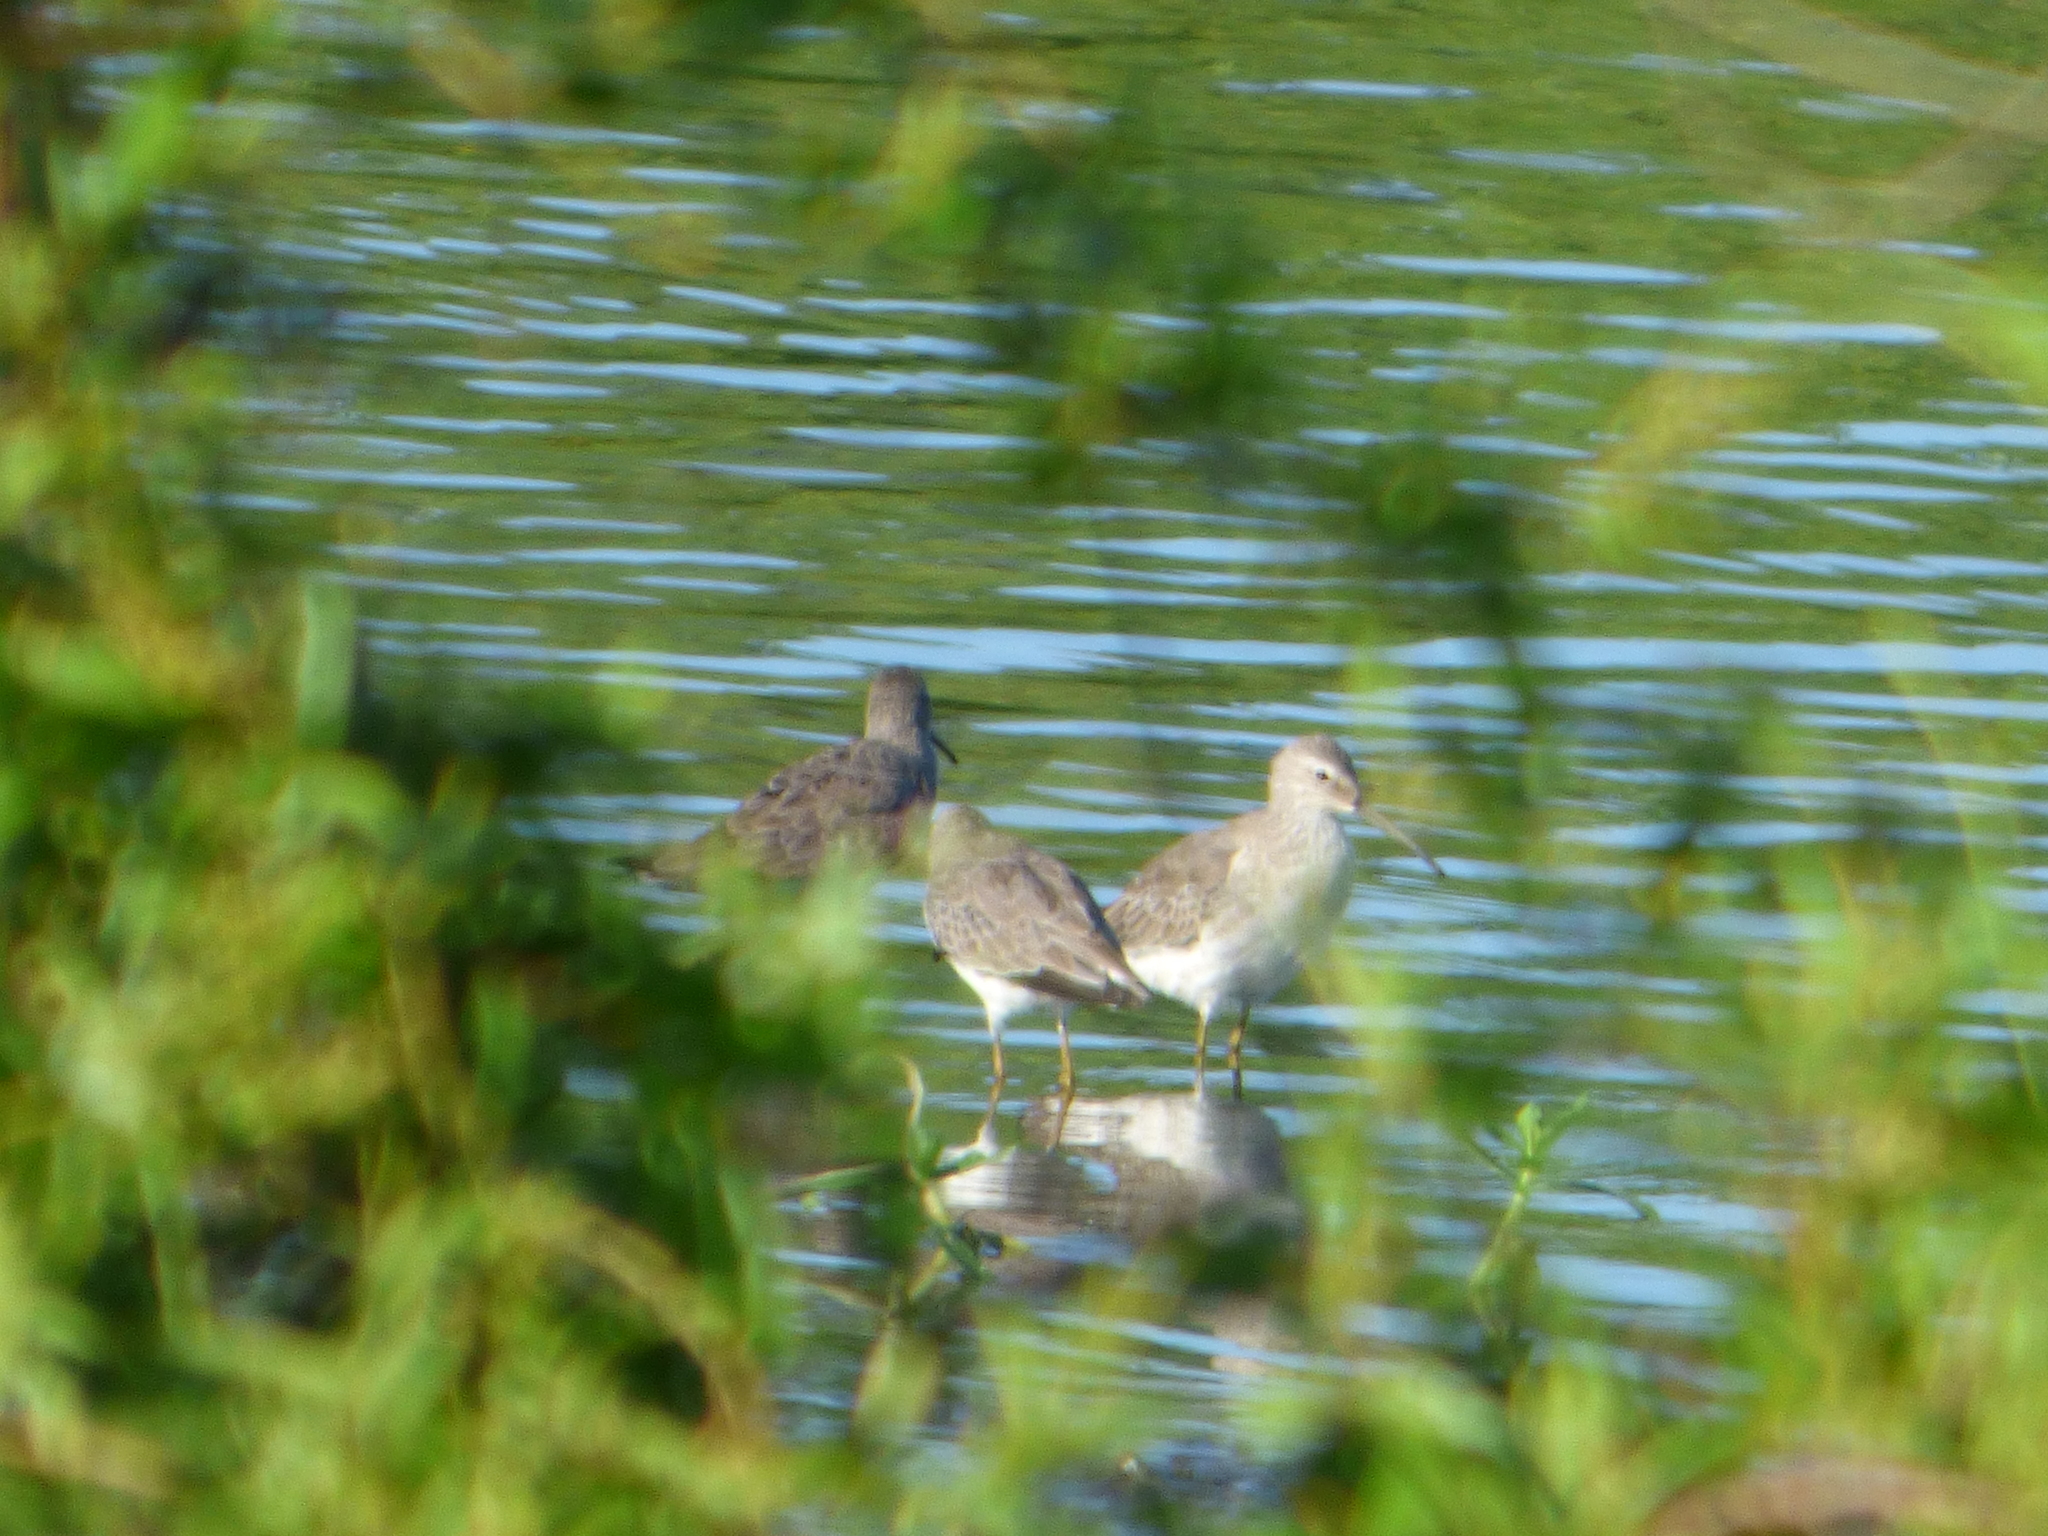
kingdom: Animalia
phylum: Chordata
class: Aves
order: Charadriiformes
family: Scolopacidae
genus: Calidris
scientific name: Calidris himantopus
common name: Stilt sandpiper
